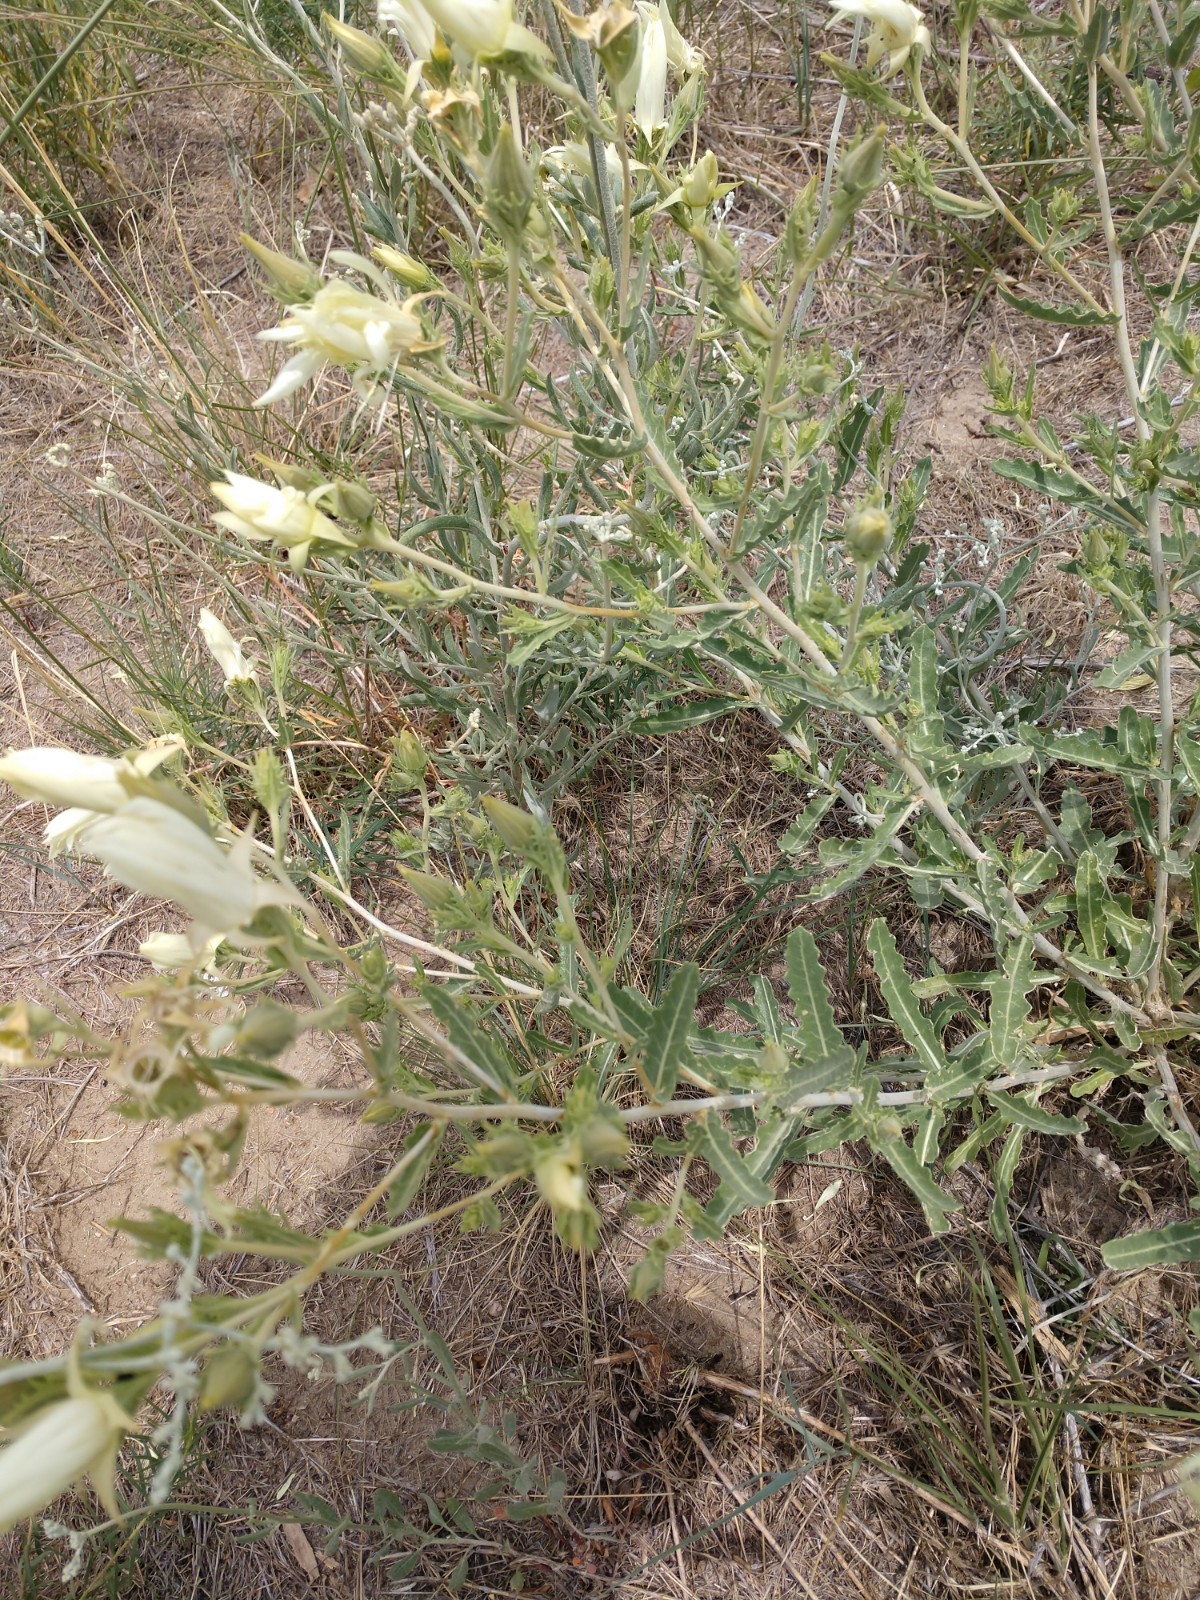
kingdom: Plantae
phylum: Tracheophyta
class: Magnoliopsida
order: Cornales
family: Loasaceae
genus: Mentzelia
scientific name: Mentzelia nuda
